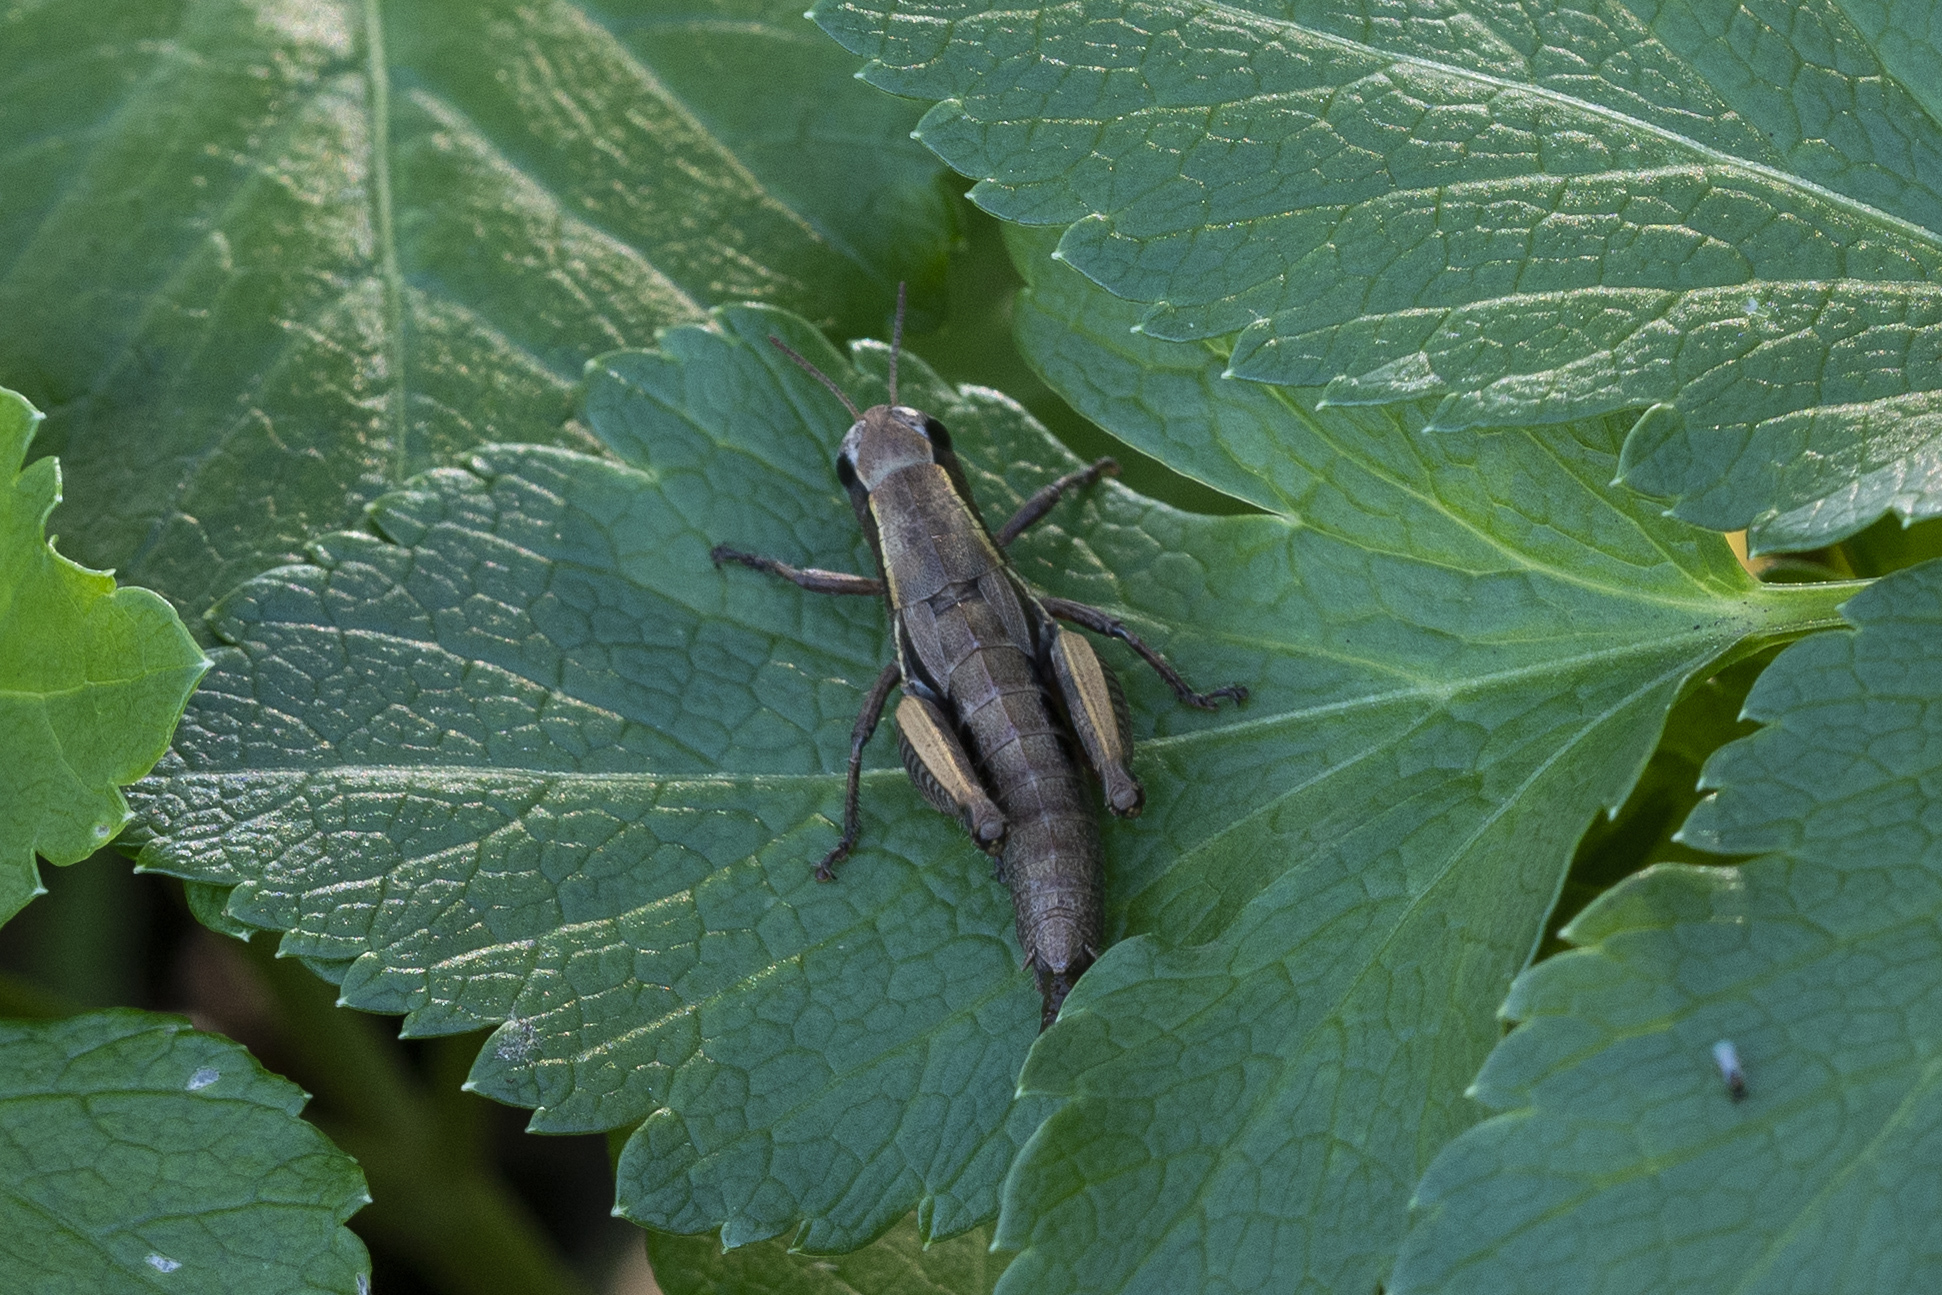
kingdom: Animalia
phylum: Arthropoda
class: Insecta
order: Orthoptera
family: Acrididae
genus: Pezotettix
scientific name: Pezotettix lagoi
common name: Rhodes maquis grasshopper
